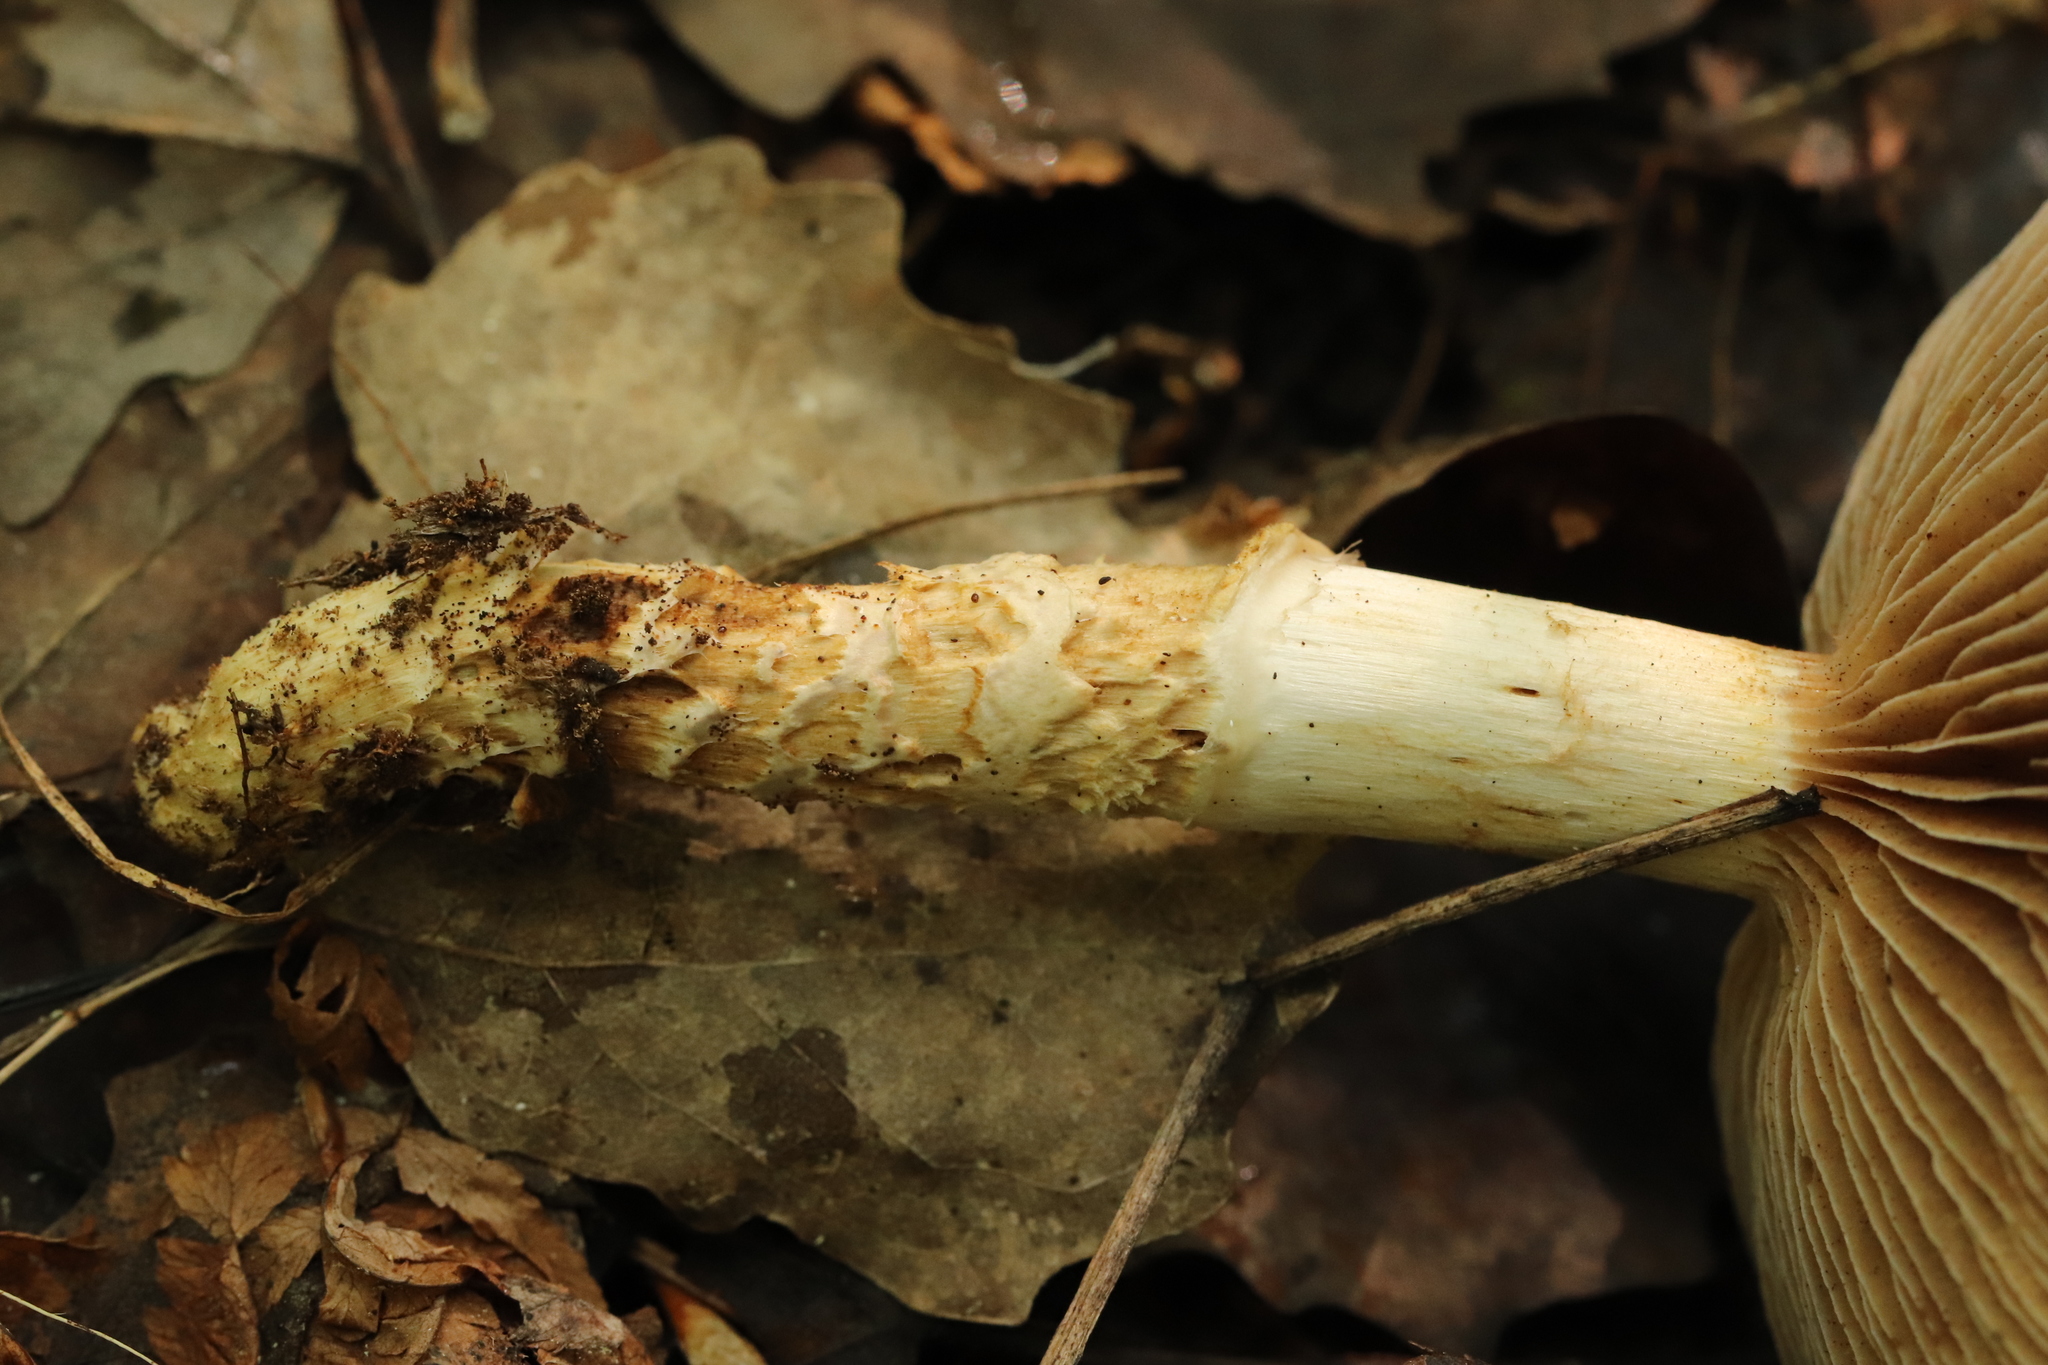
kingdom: Fungi
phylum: Basidiomycota
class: Agaricomycetes
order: Agaricales
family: Cortinariaceae
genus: Cortinarius
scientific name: Cortinarius trivialis
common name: Girdled webcap
